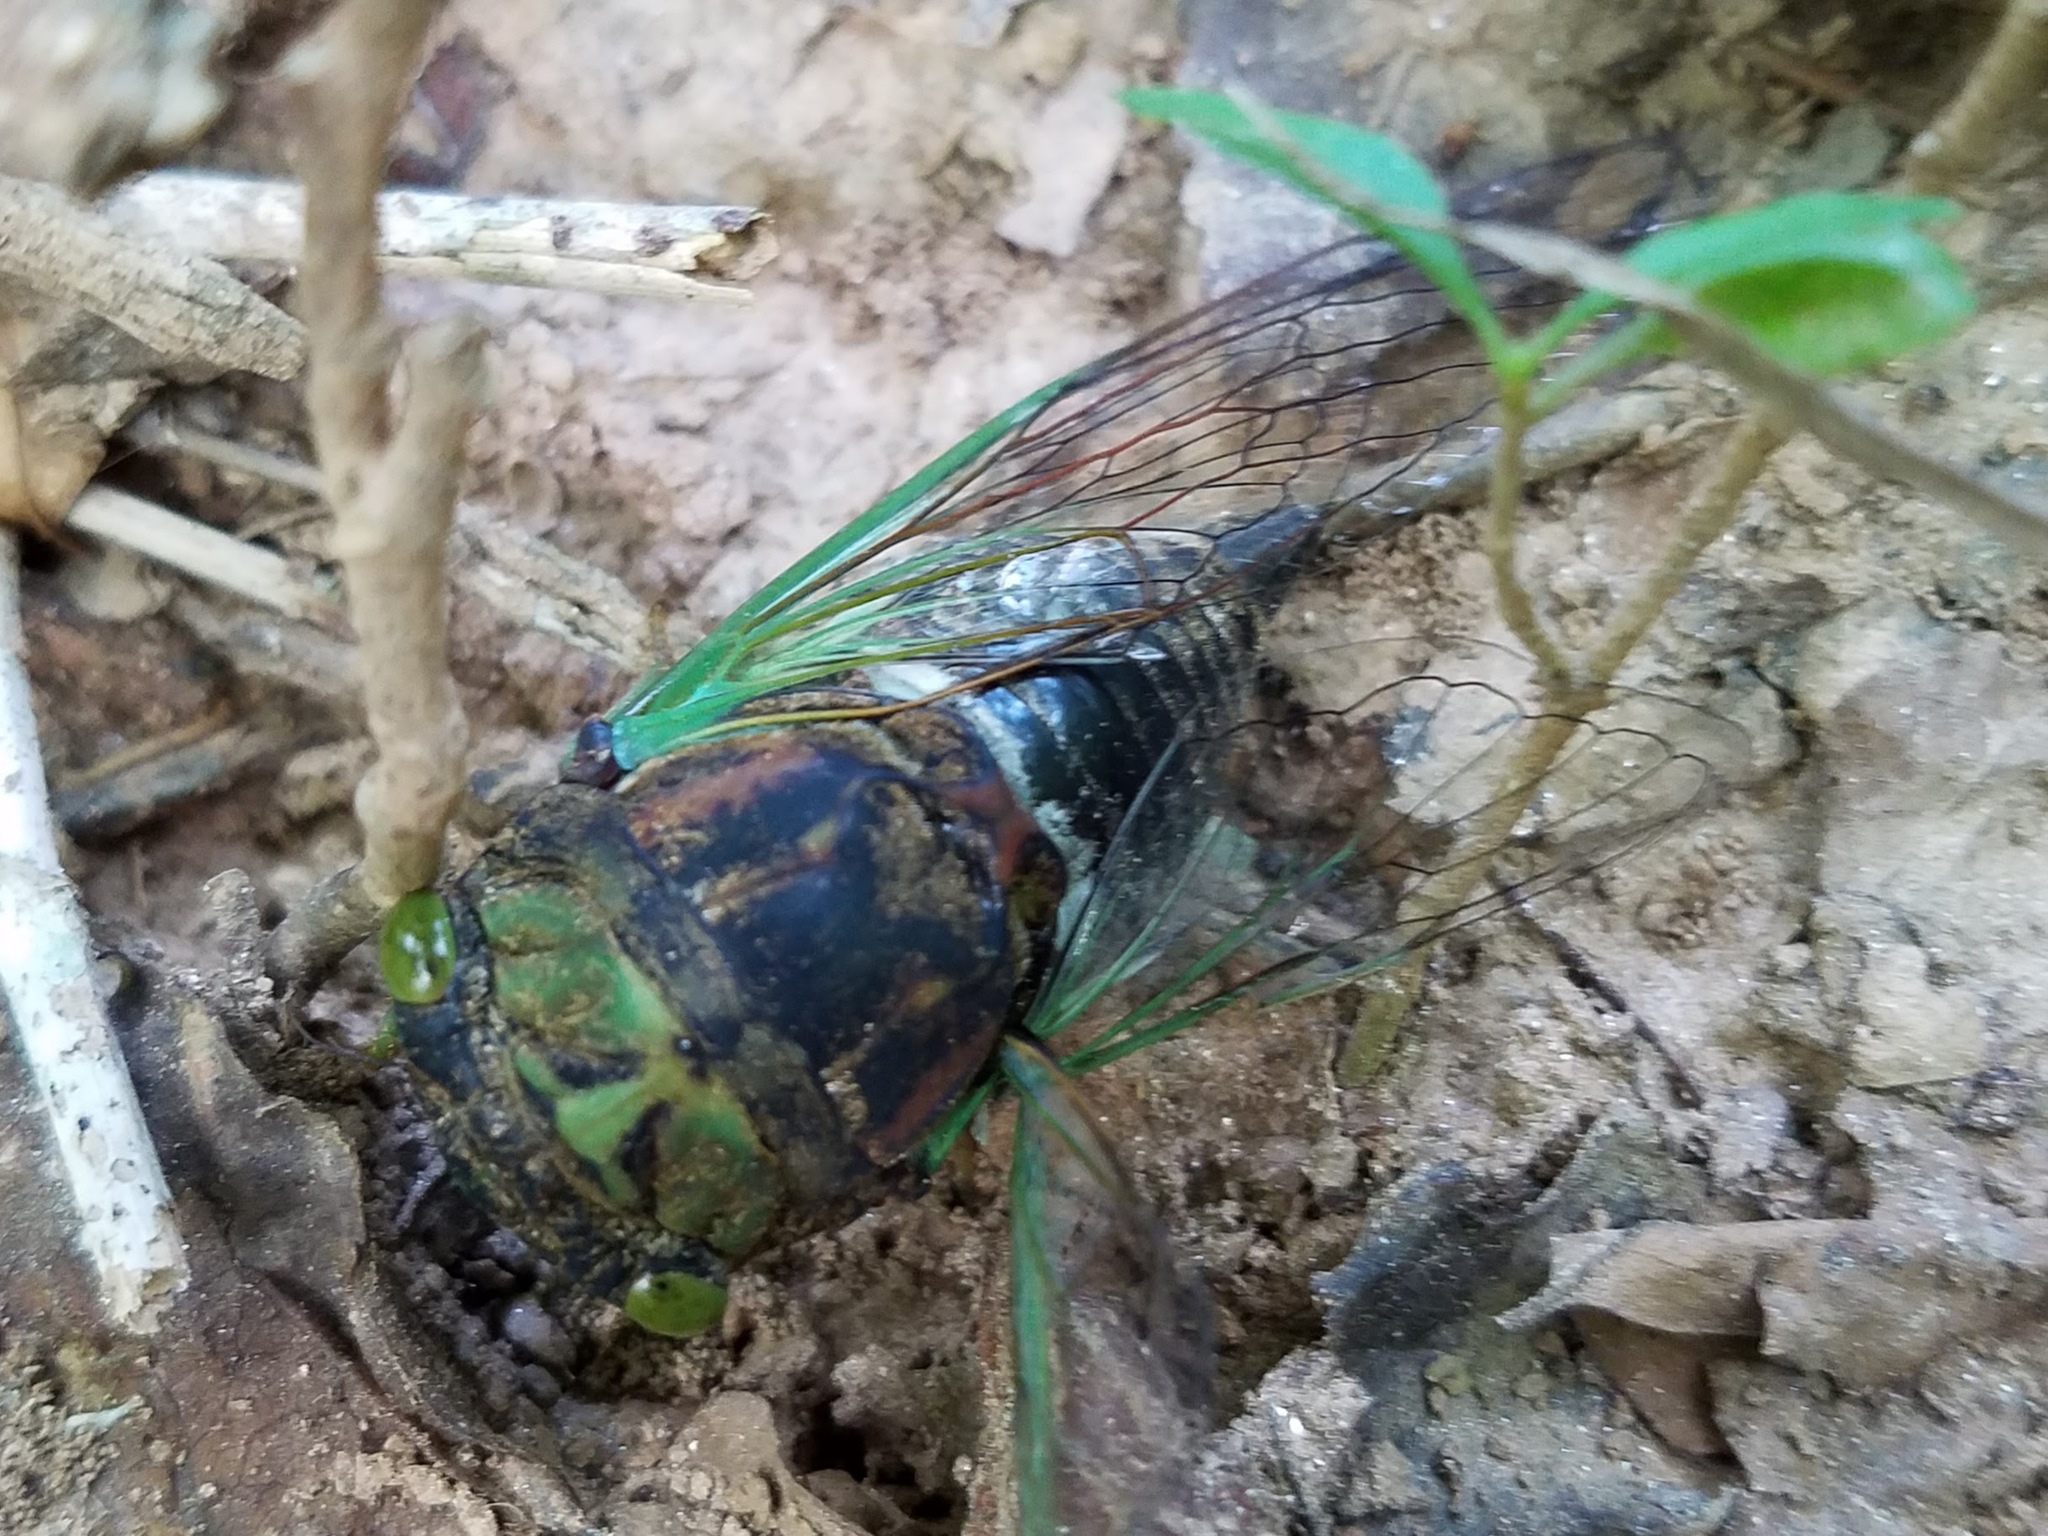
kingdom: Animalia
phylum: Arthropoda
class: Insecta
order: Hemiptera
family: Cicadidae
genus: Neotibicen
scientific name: Neotibicen tibicen
